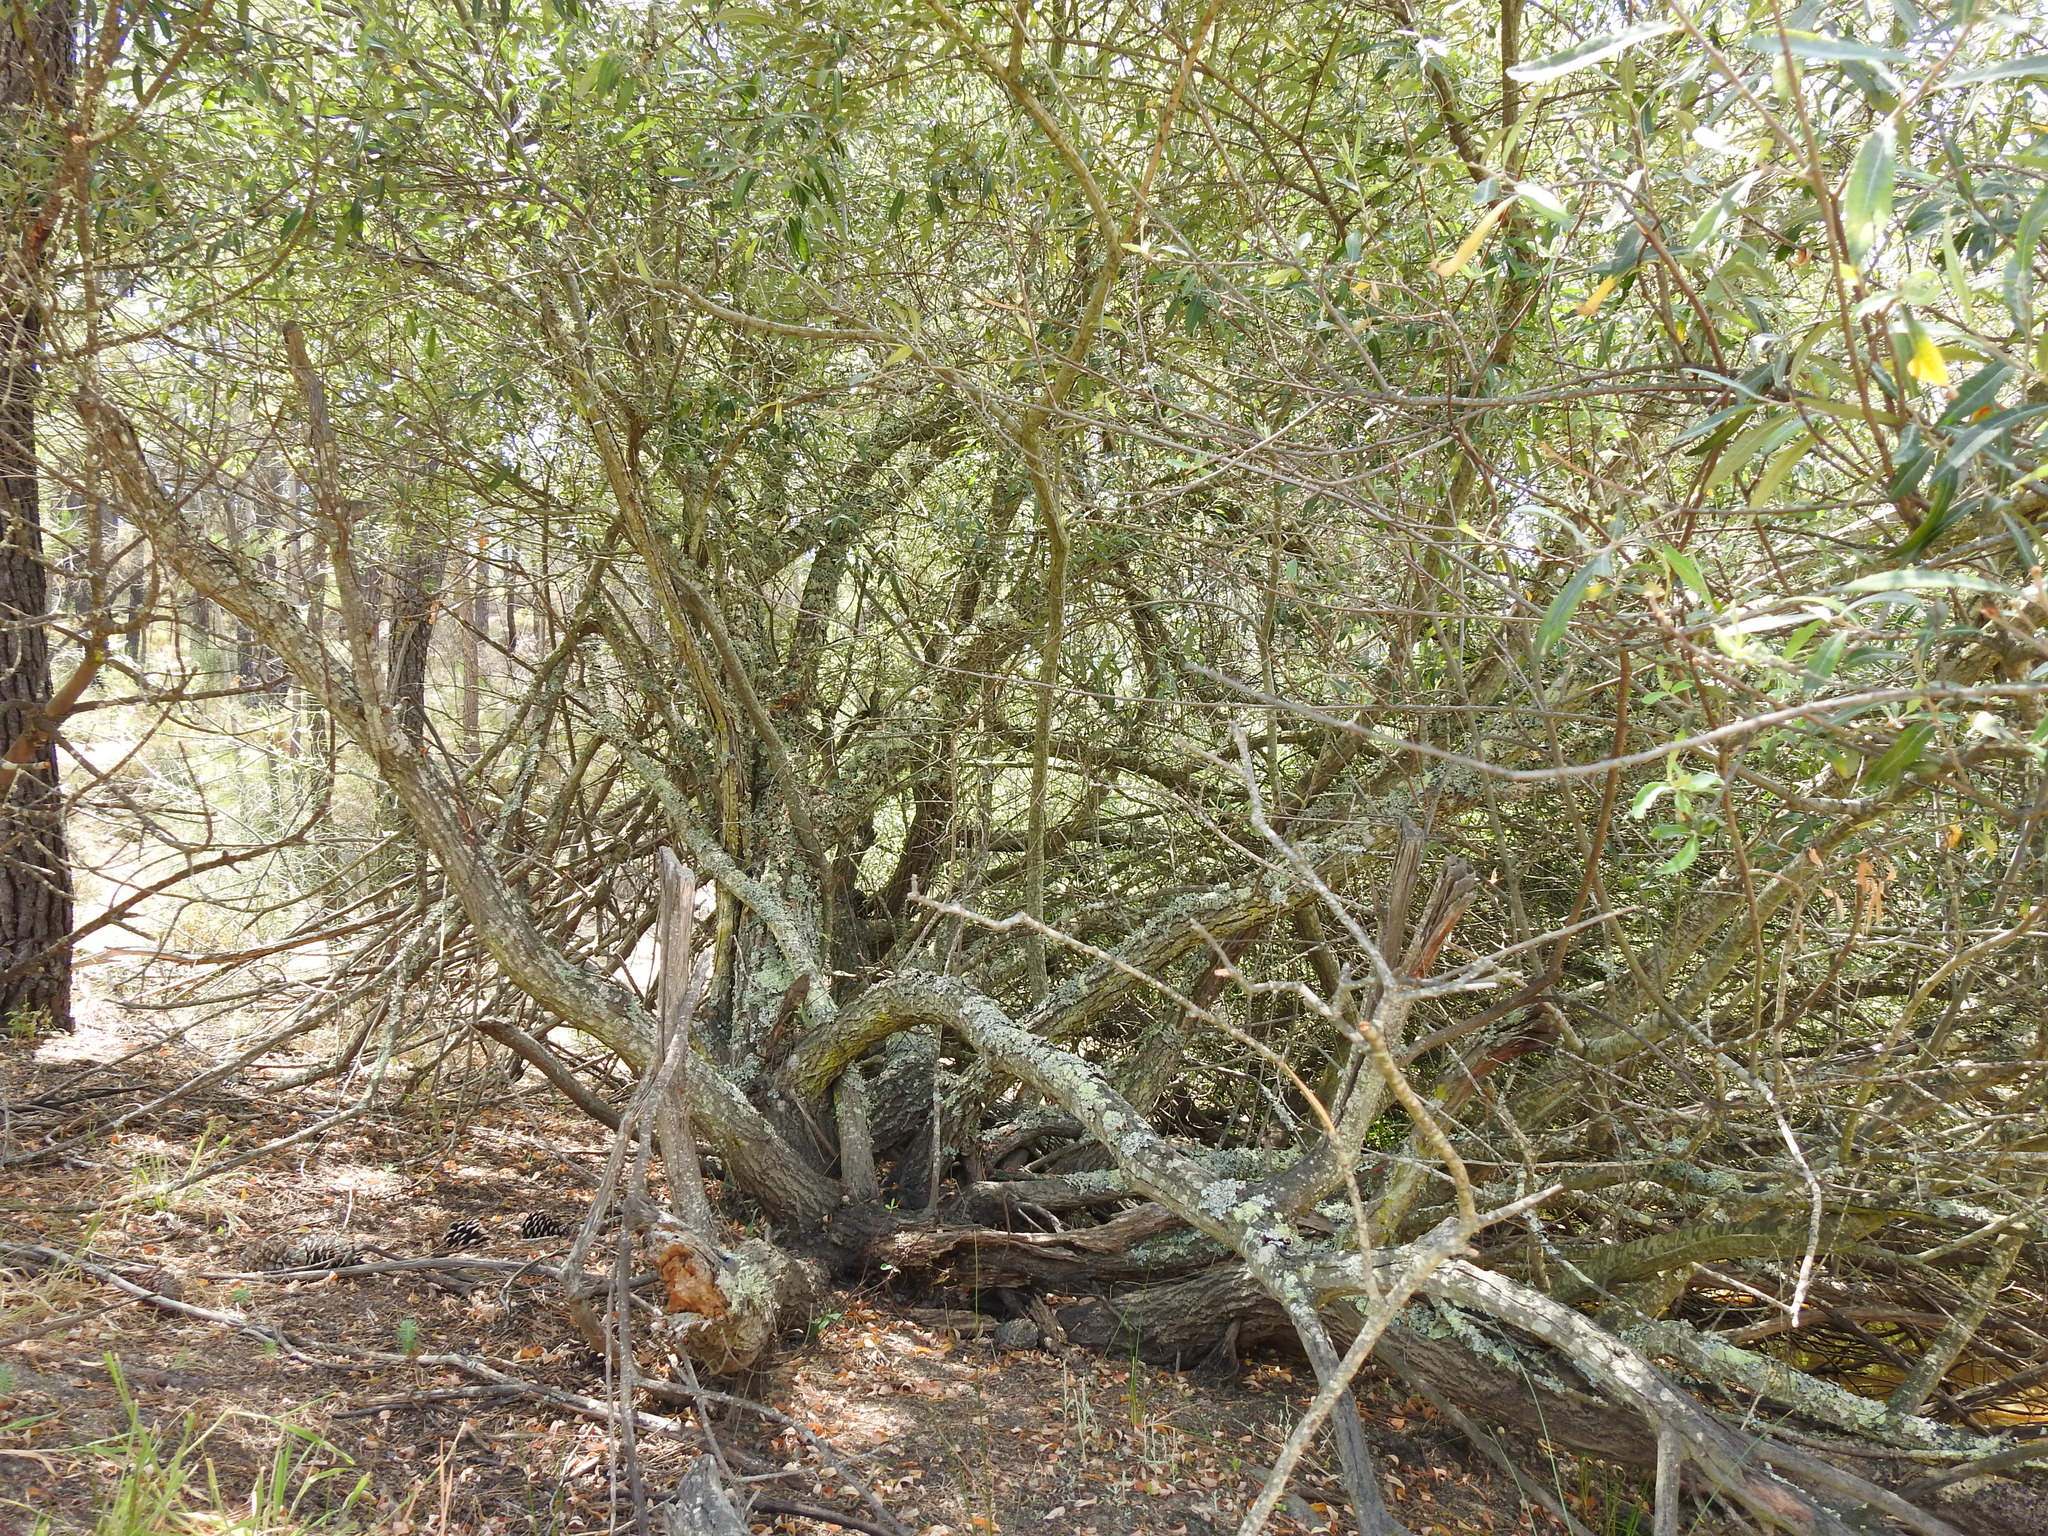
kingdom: Plantae
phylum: Tracheophyta
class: Magnoliopsida
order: Malpighiales
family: Salicaceae
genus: Salix
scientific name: Salix salviifolia
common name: Salvia-leaf willow
